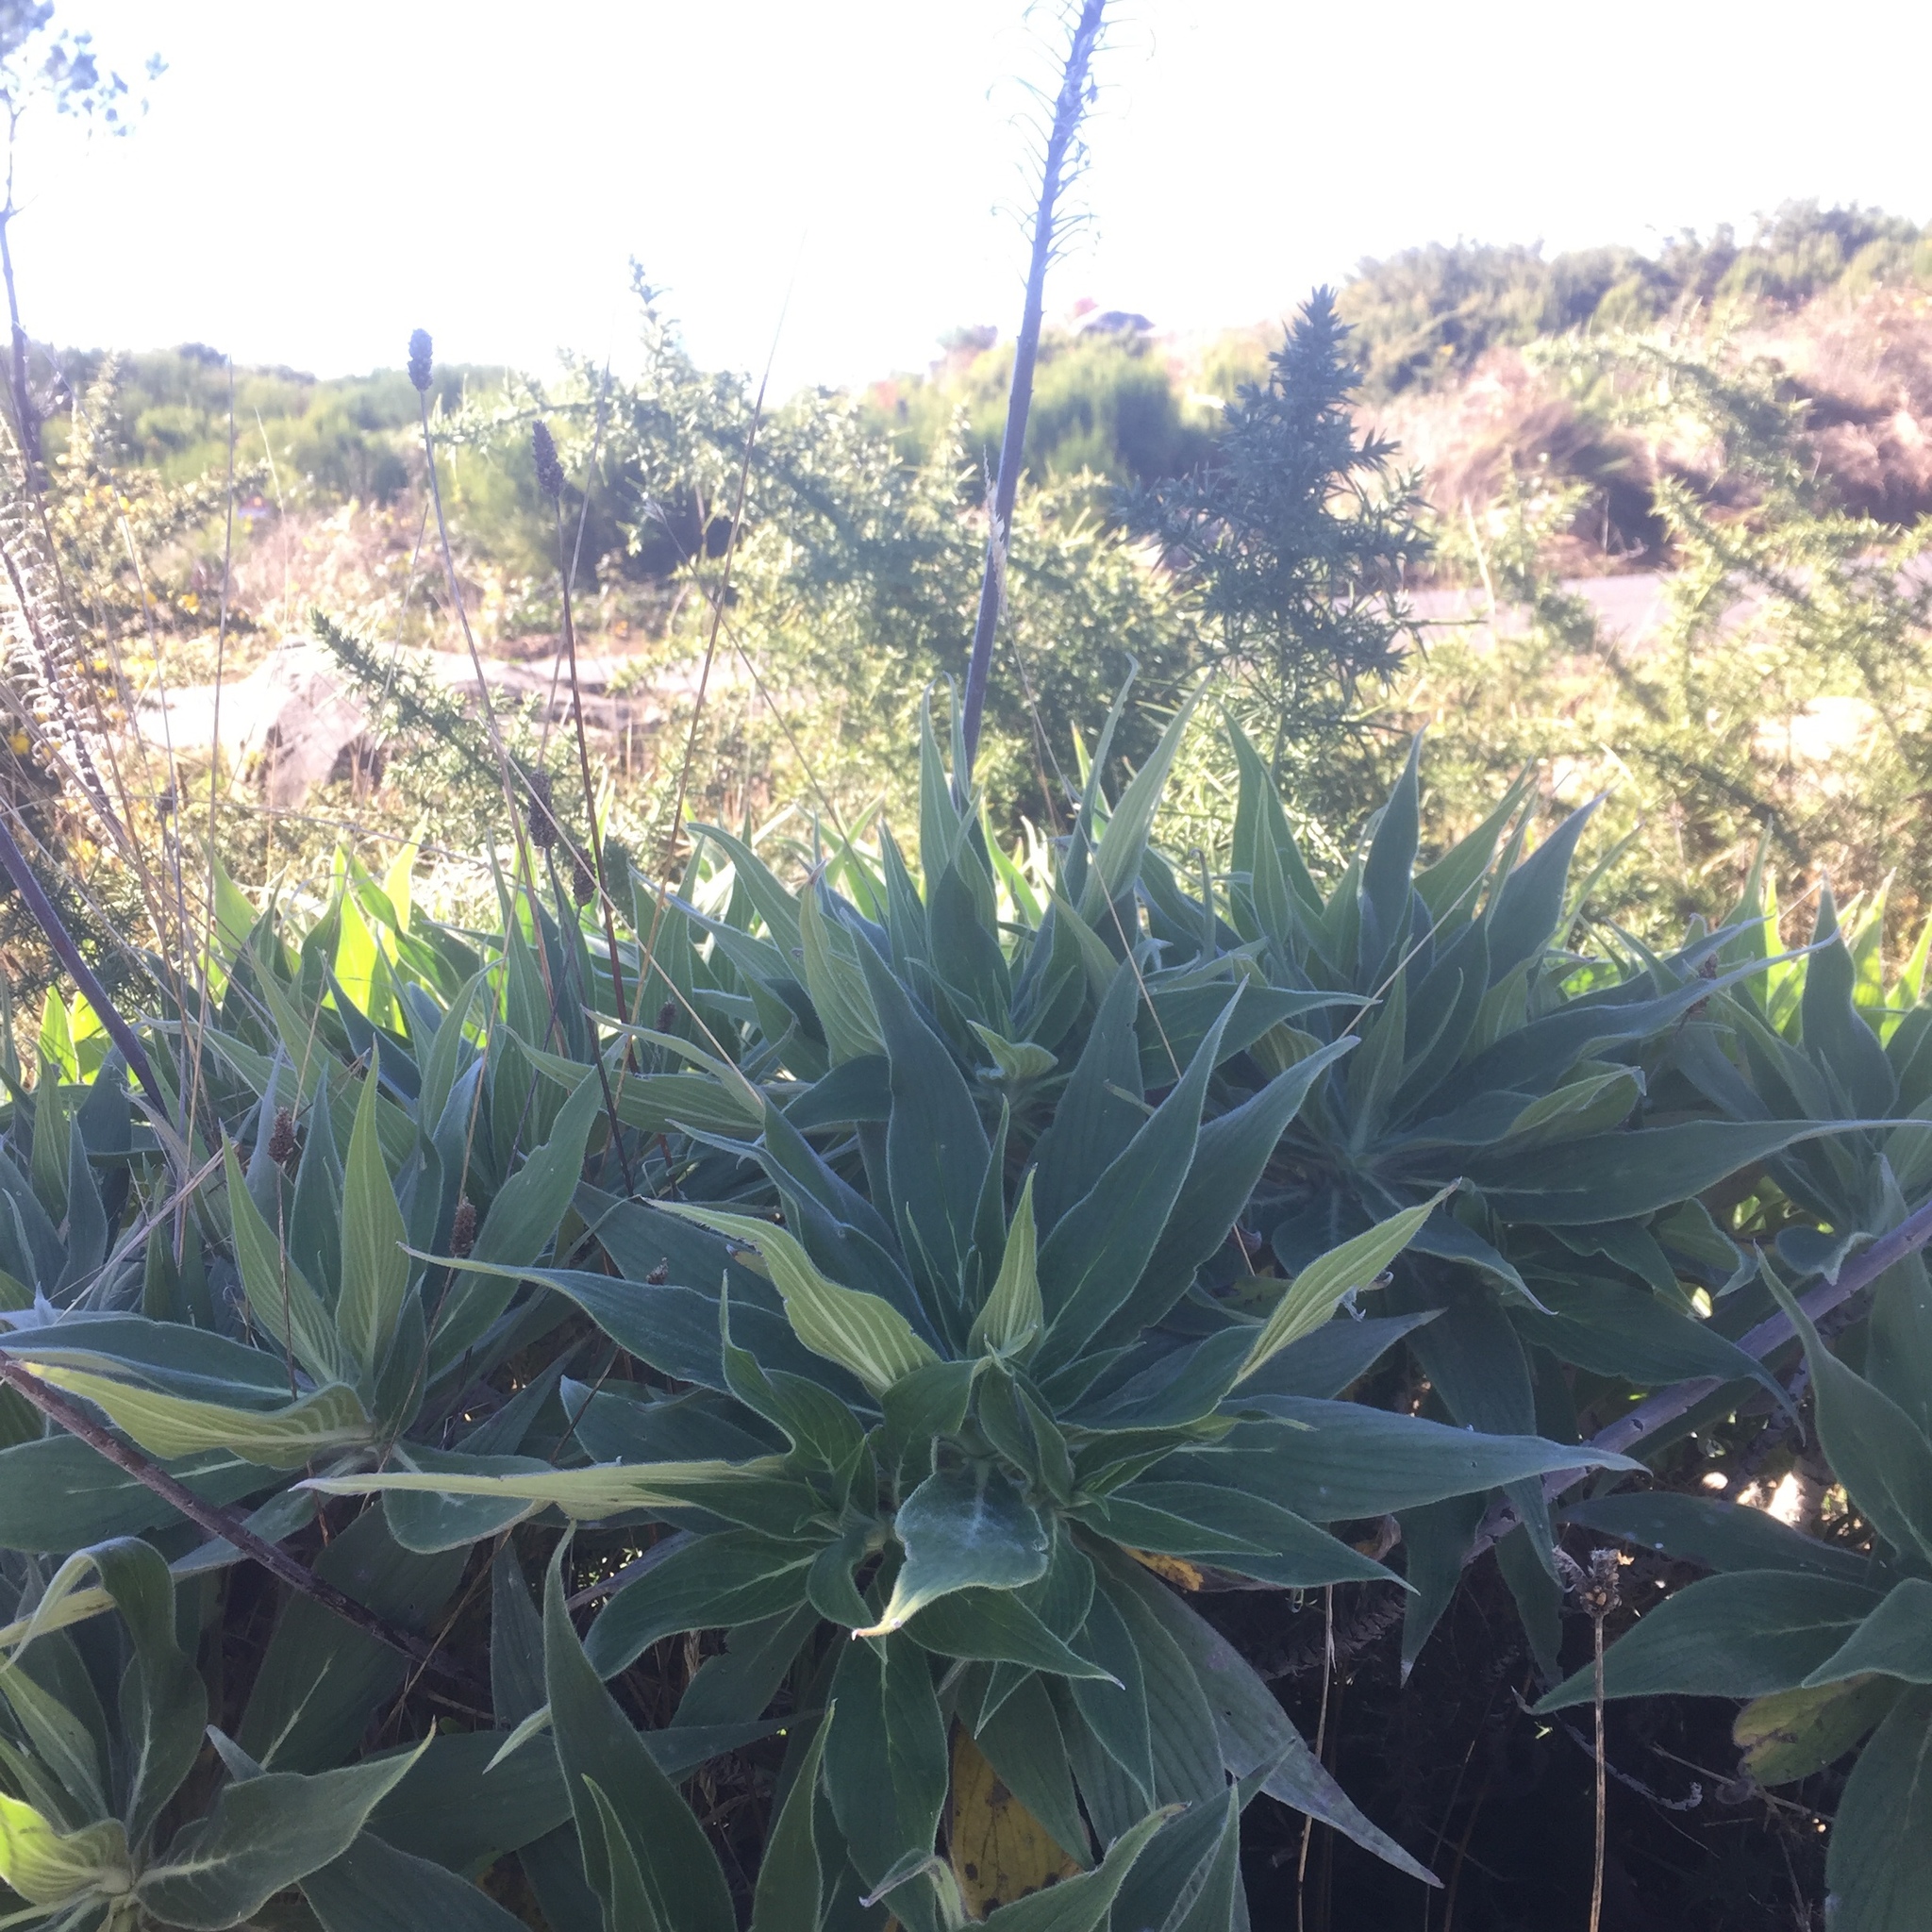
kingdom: Plantae
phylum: Tracheophyta
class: Magnoliopsida
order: Boraginales
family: Boraginaceae
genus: Echium
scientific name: Echium candicans
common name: Pride of madeira
